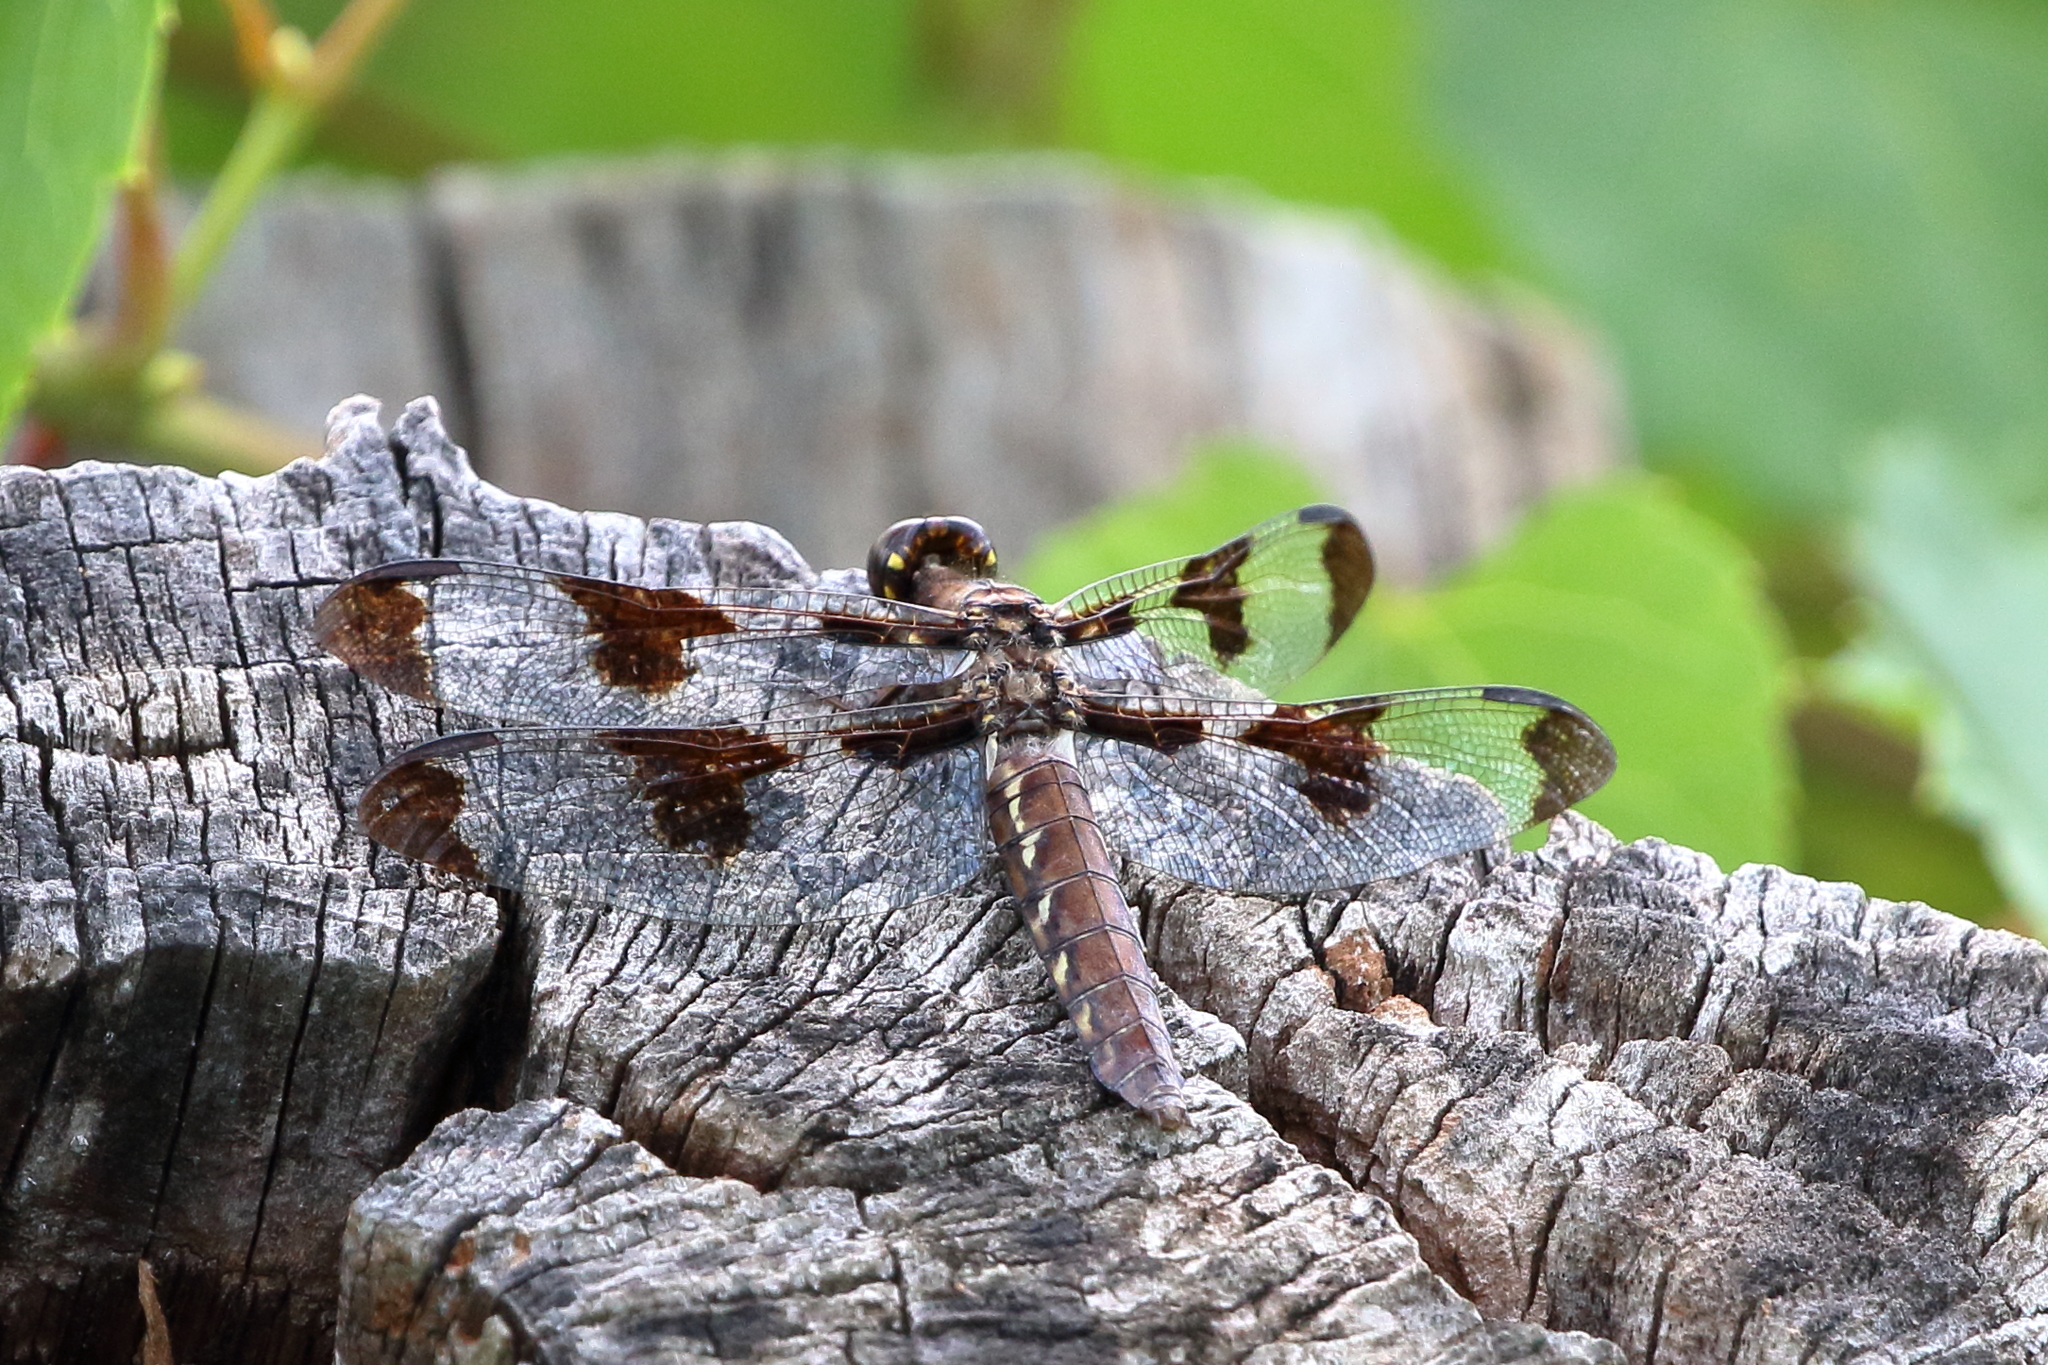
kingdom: Animalia
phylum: Arthropoda
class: Insecta
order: Odonata
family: Libellulidae
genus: Plathemis
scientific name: Plathemis lydia
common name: Common whitetail
